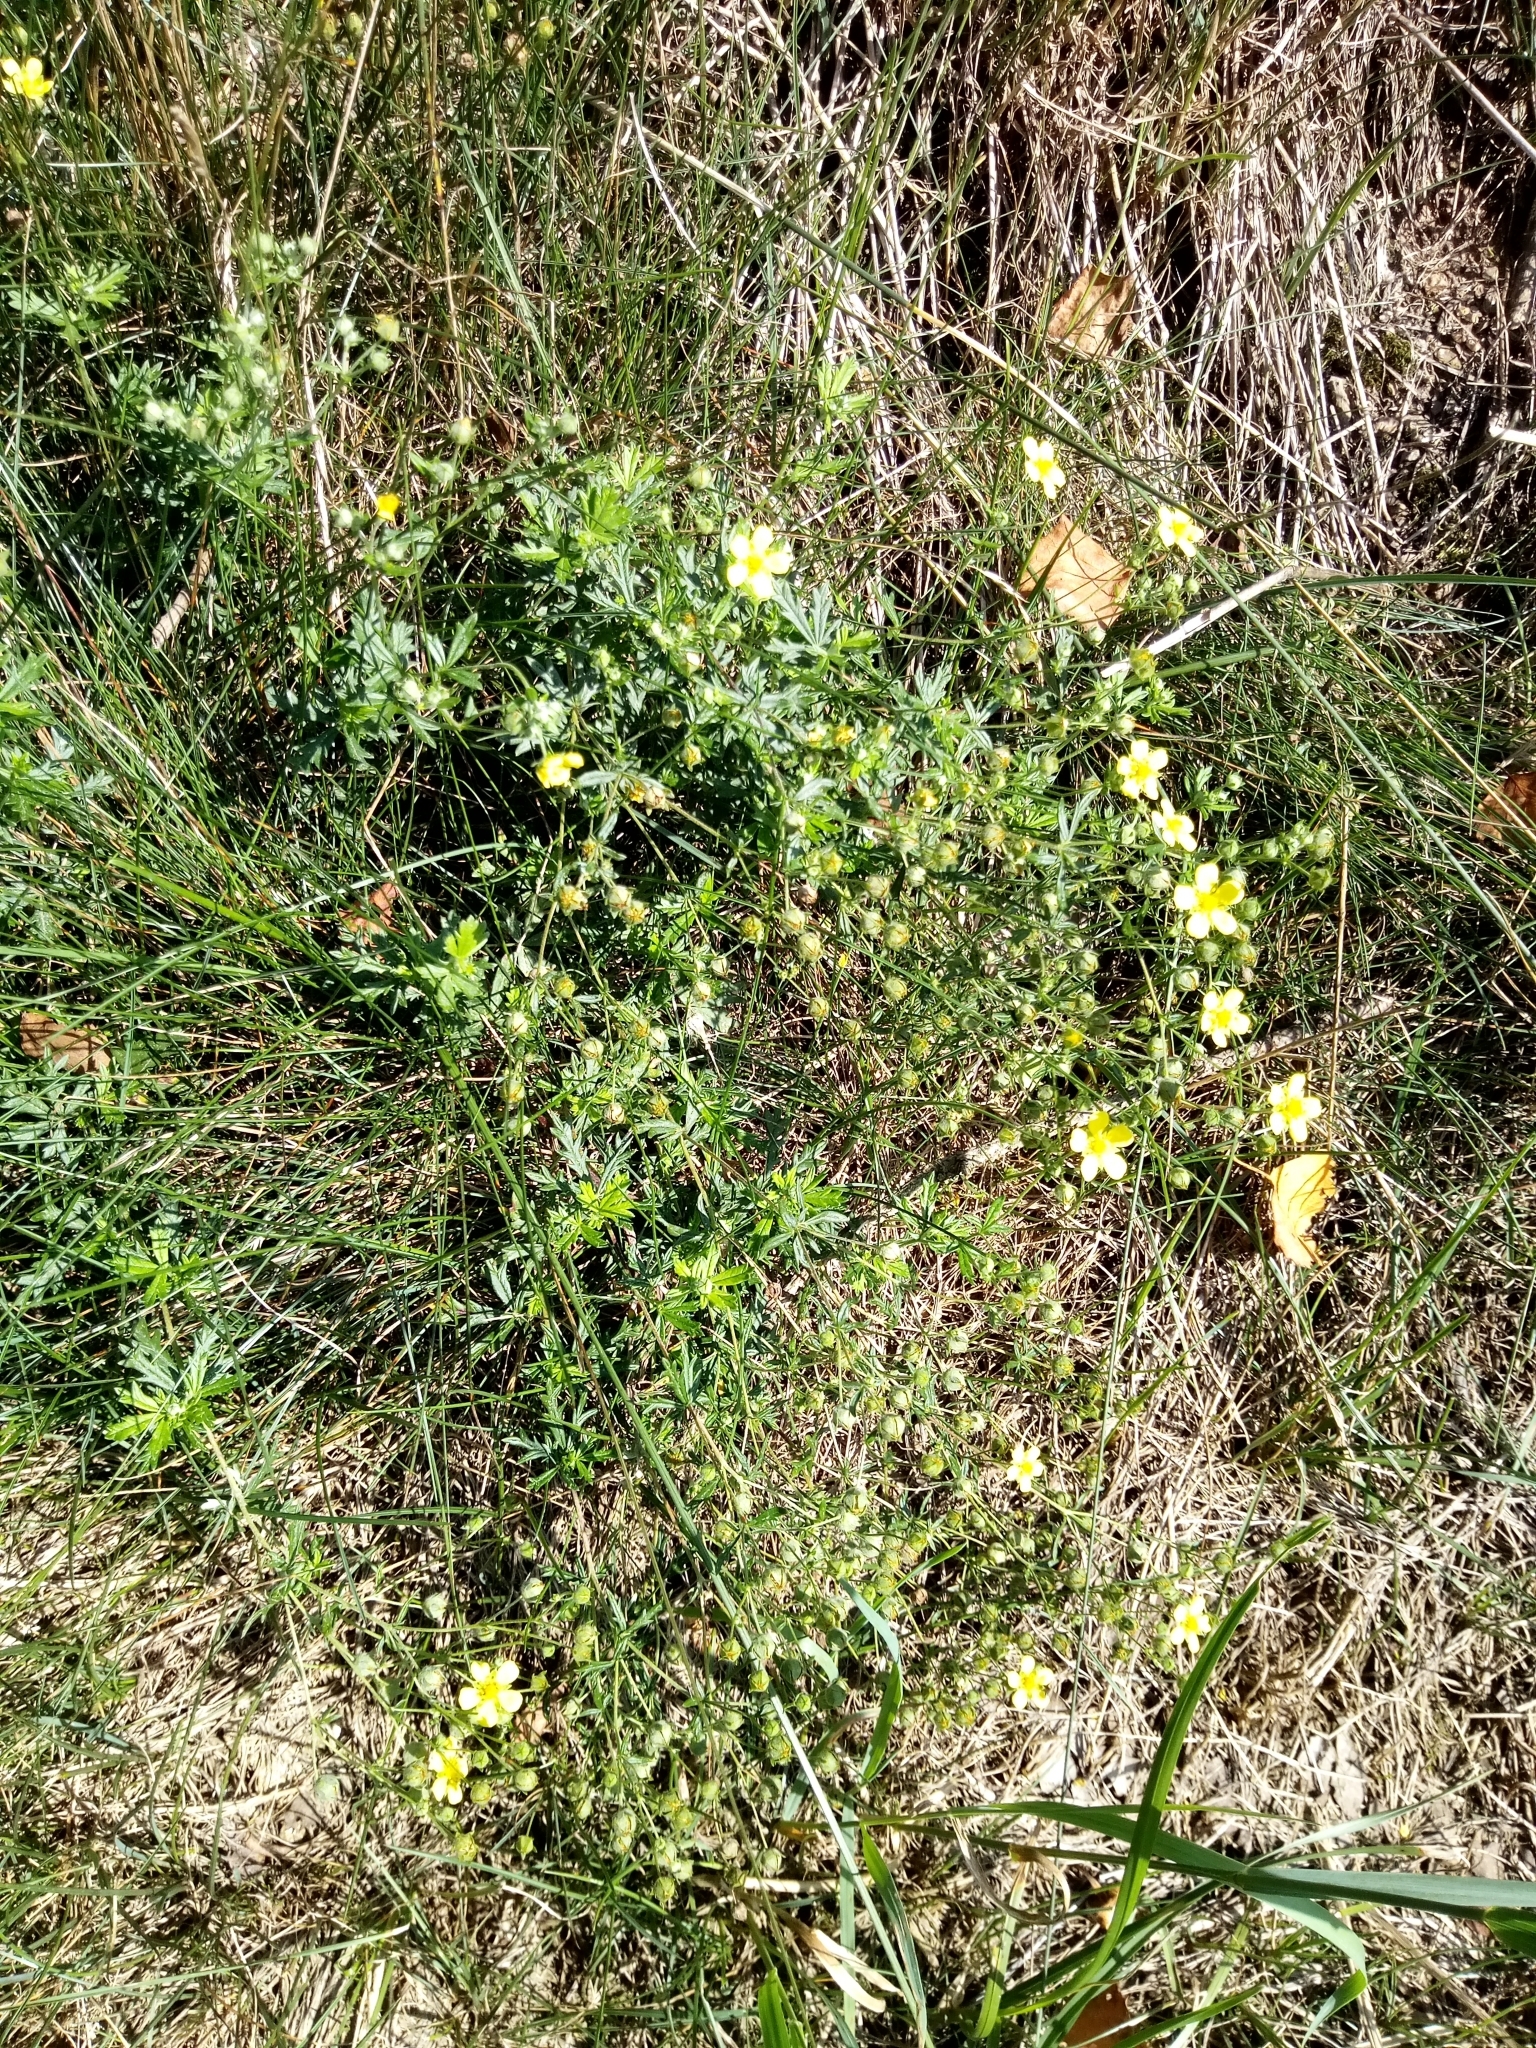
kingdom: Plantae
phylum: Tracheophyta
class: Magnoliopsida
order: Rosales
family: Rosaceae
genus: Potentilla
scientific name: Potentilla argentea
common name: Hoary cinquefoil
